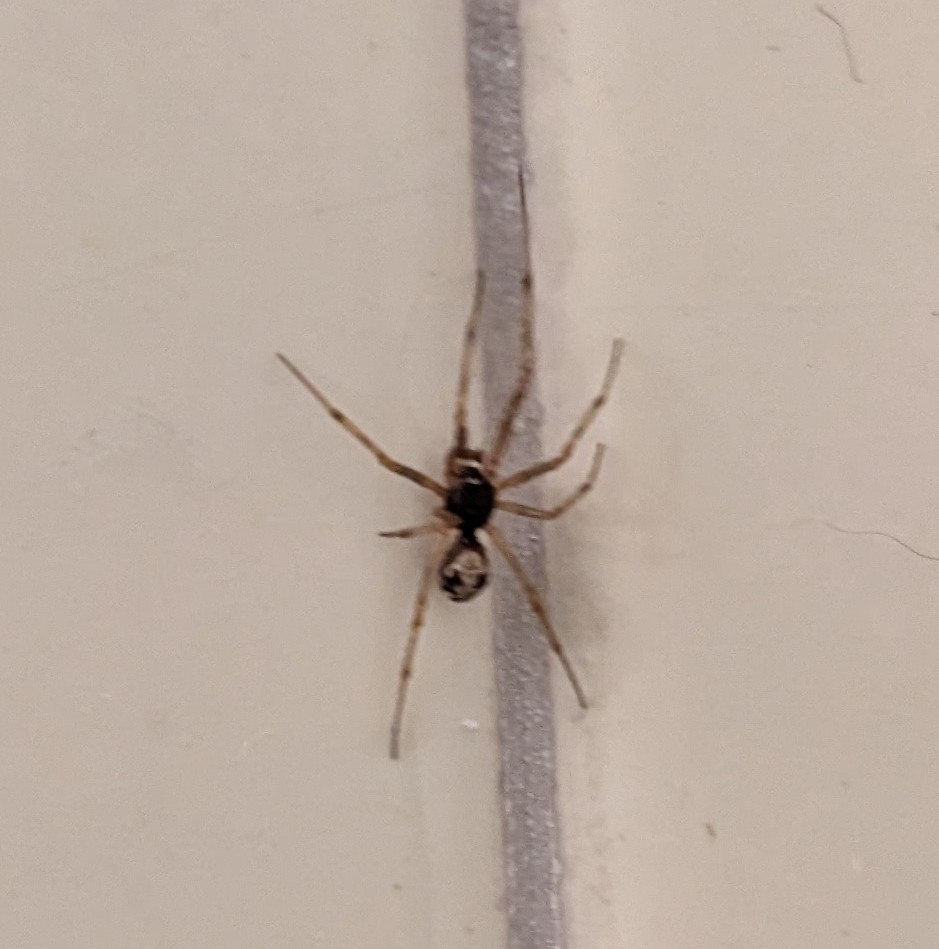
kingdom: Animalia
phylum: Arthropoda
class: Arachnida
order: Araneae
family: Theridiidae
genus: Steatoda
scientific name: Steatoda triangulosa
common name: Triangulate bud spider
